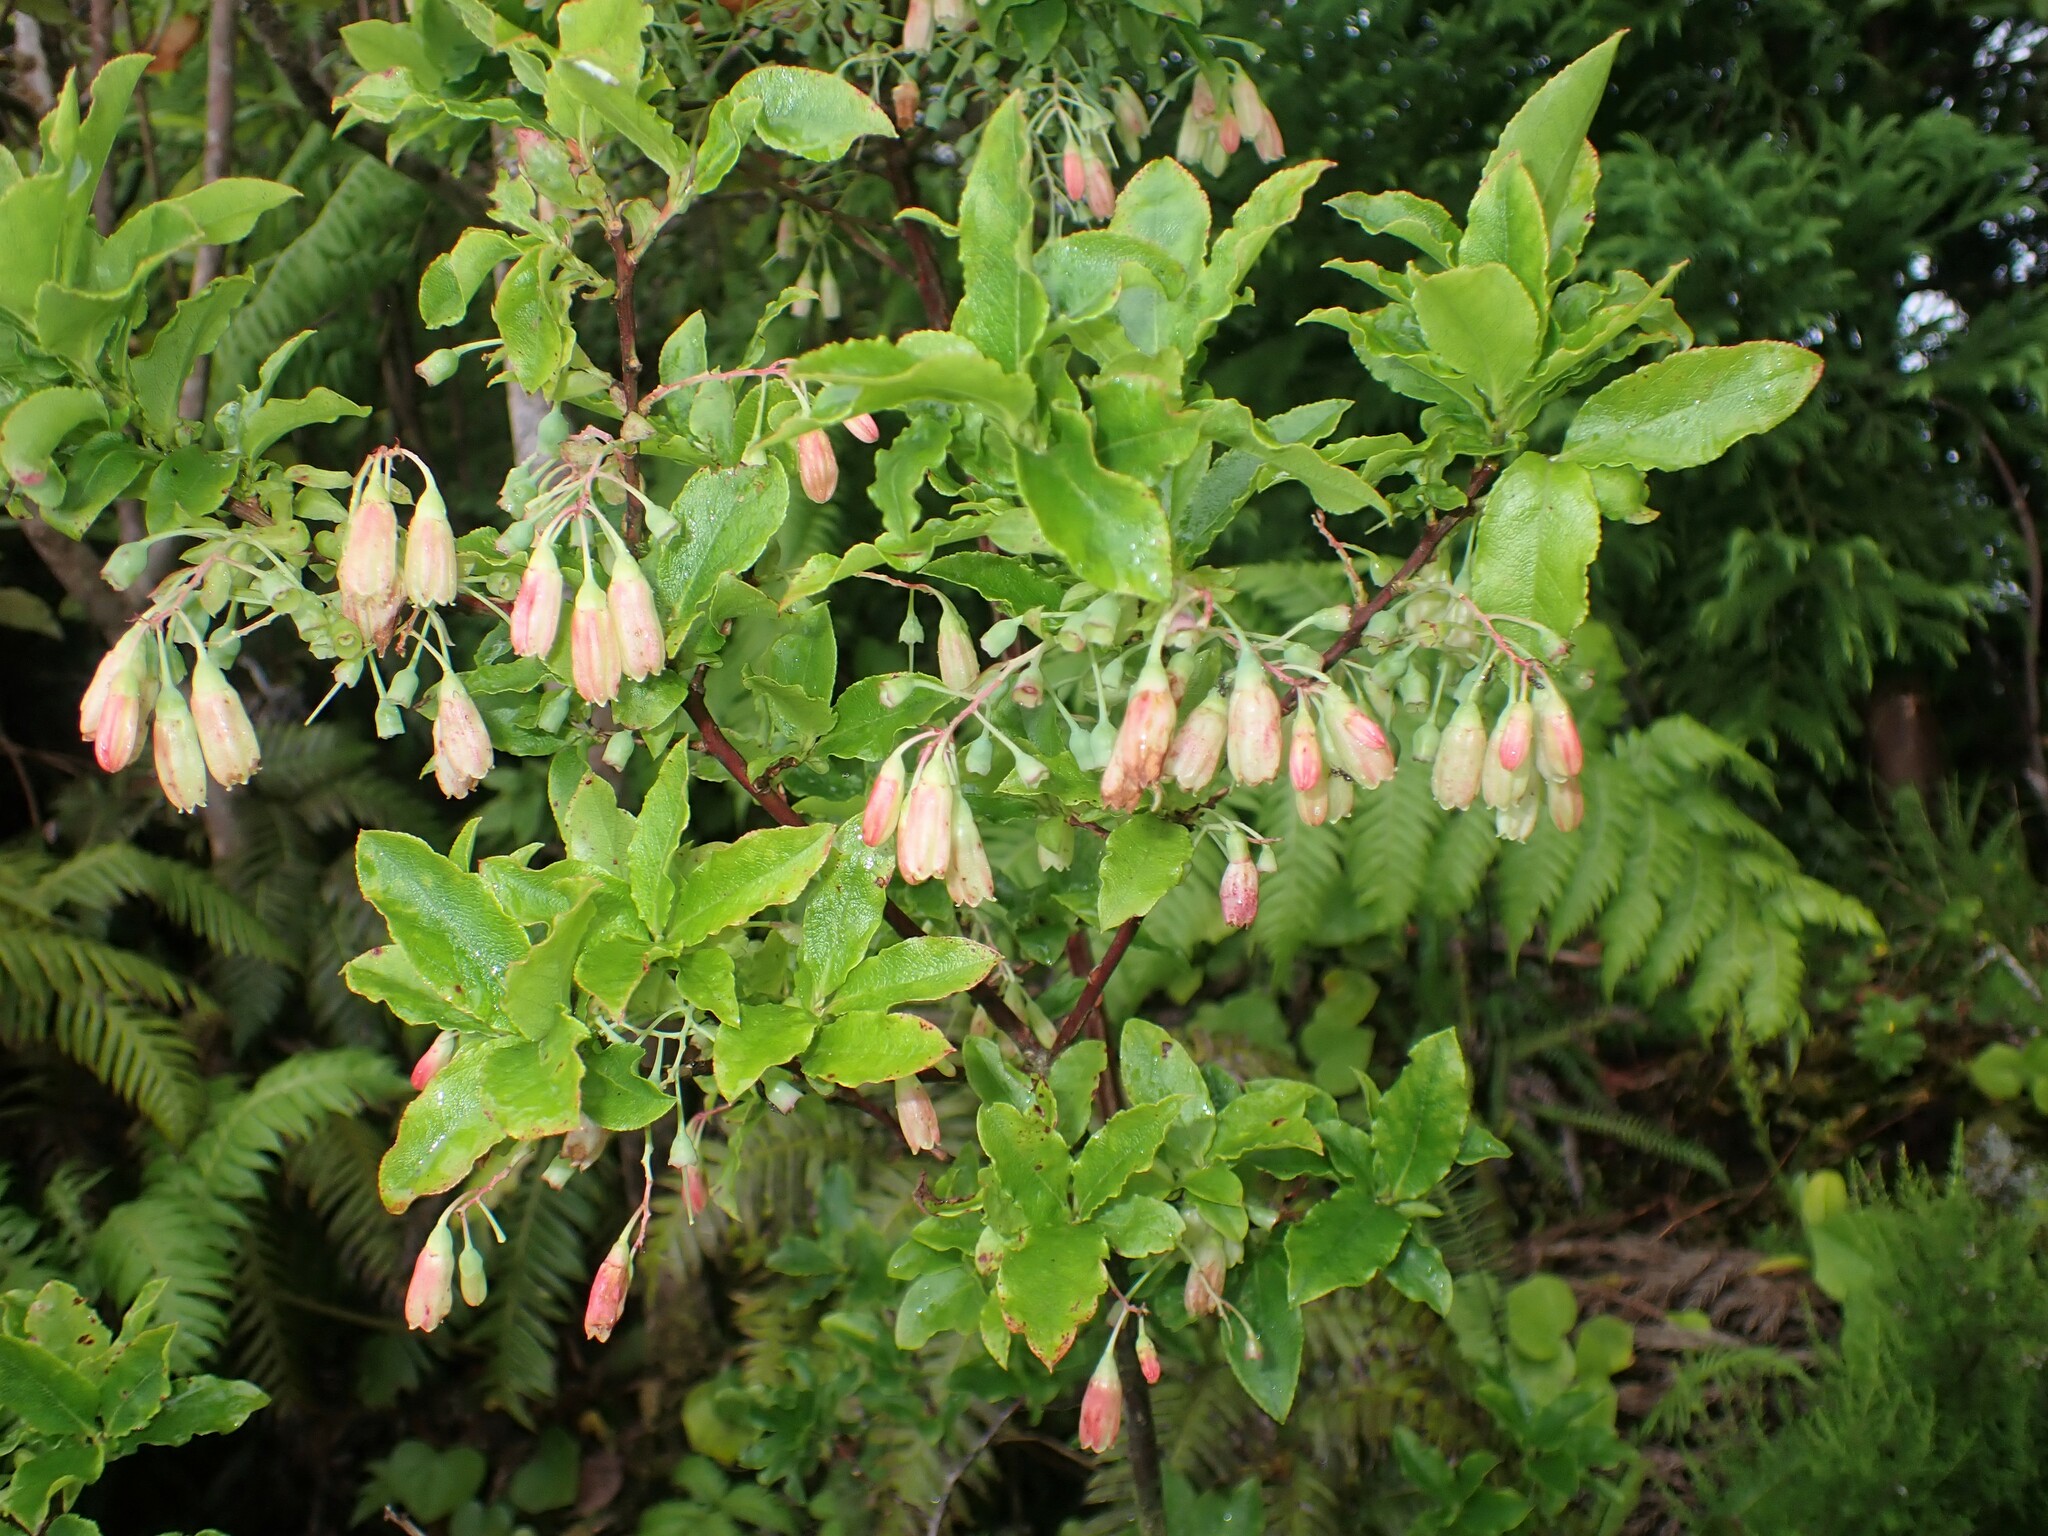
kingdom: Plantae
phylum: Tracheophyta
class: Magnoliopsida
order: Ericales
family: Ericaceae
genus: Vaccinium
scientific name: Vaccinium cylindraceum
